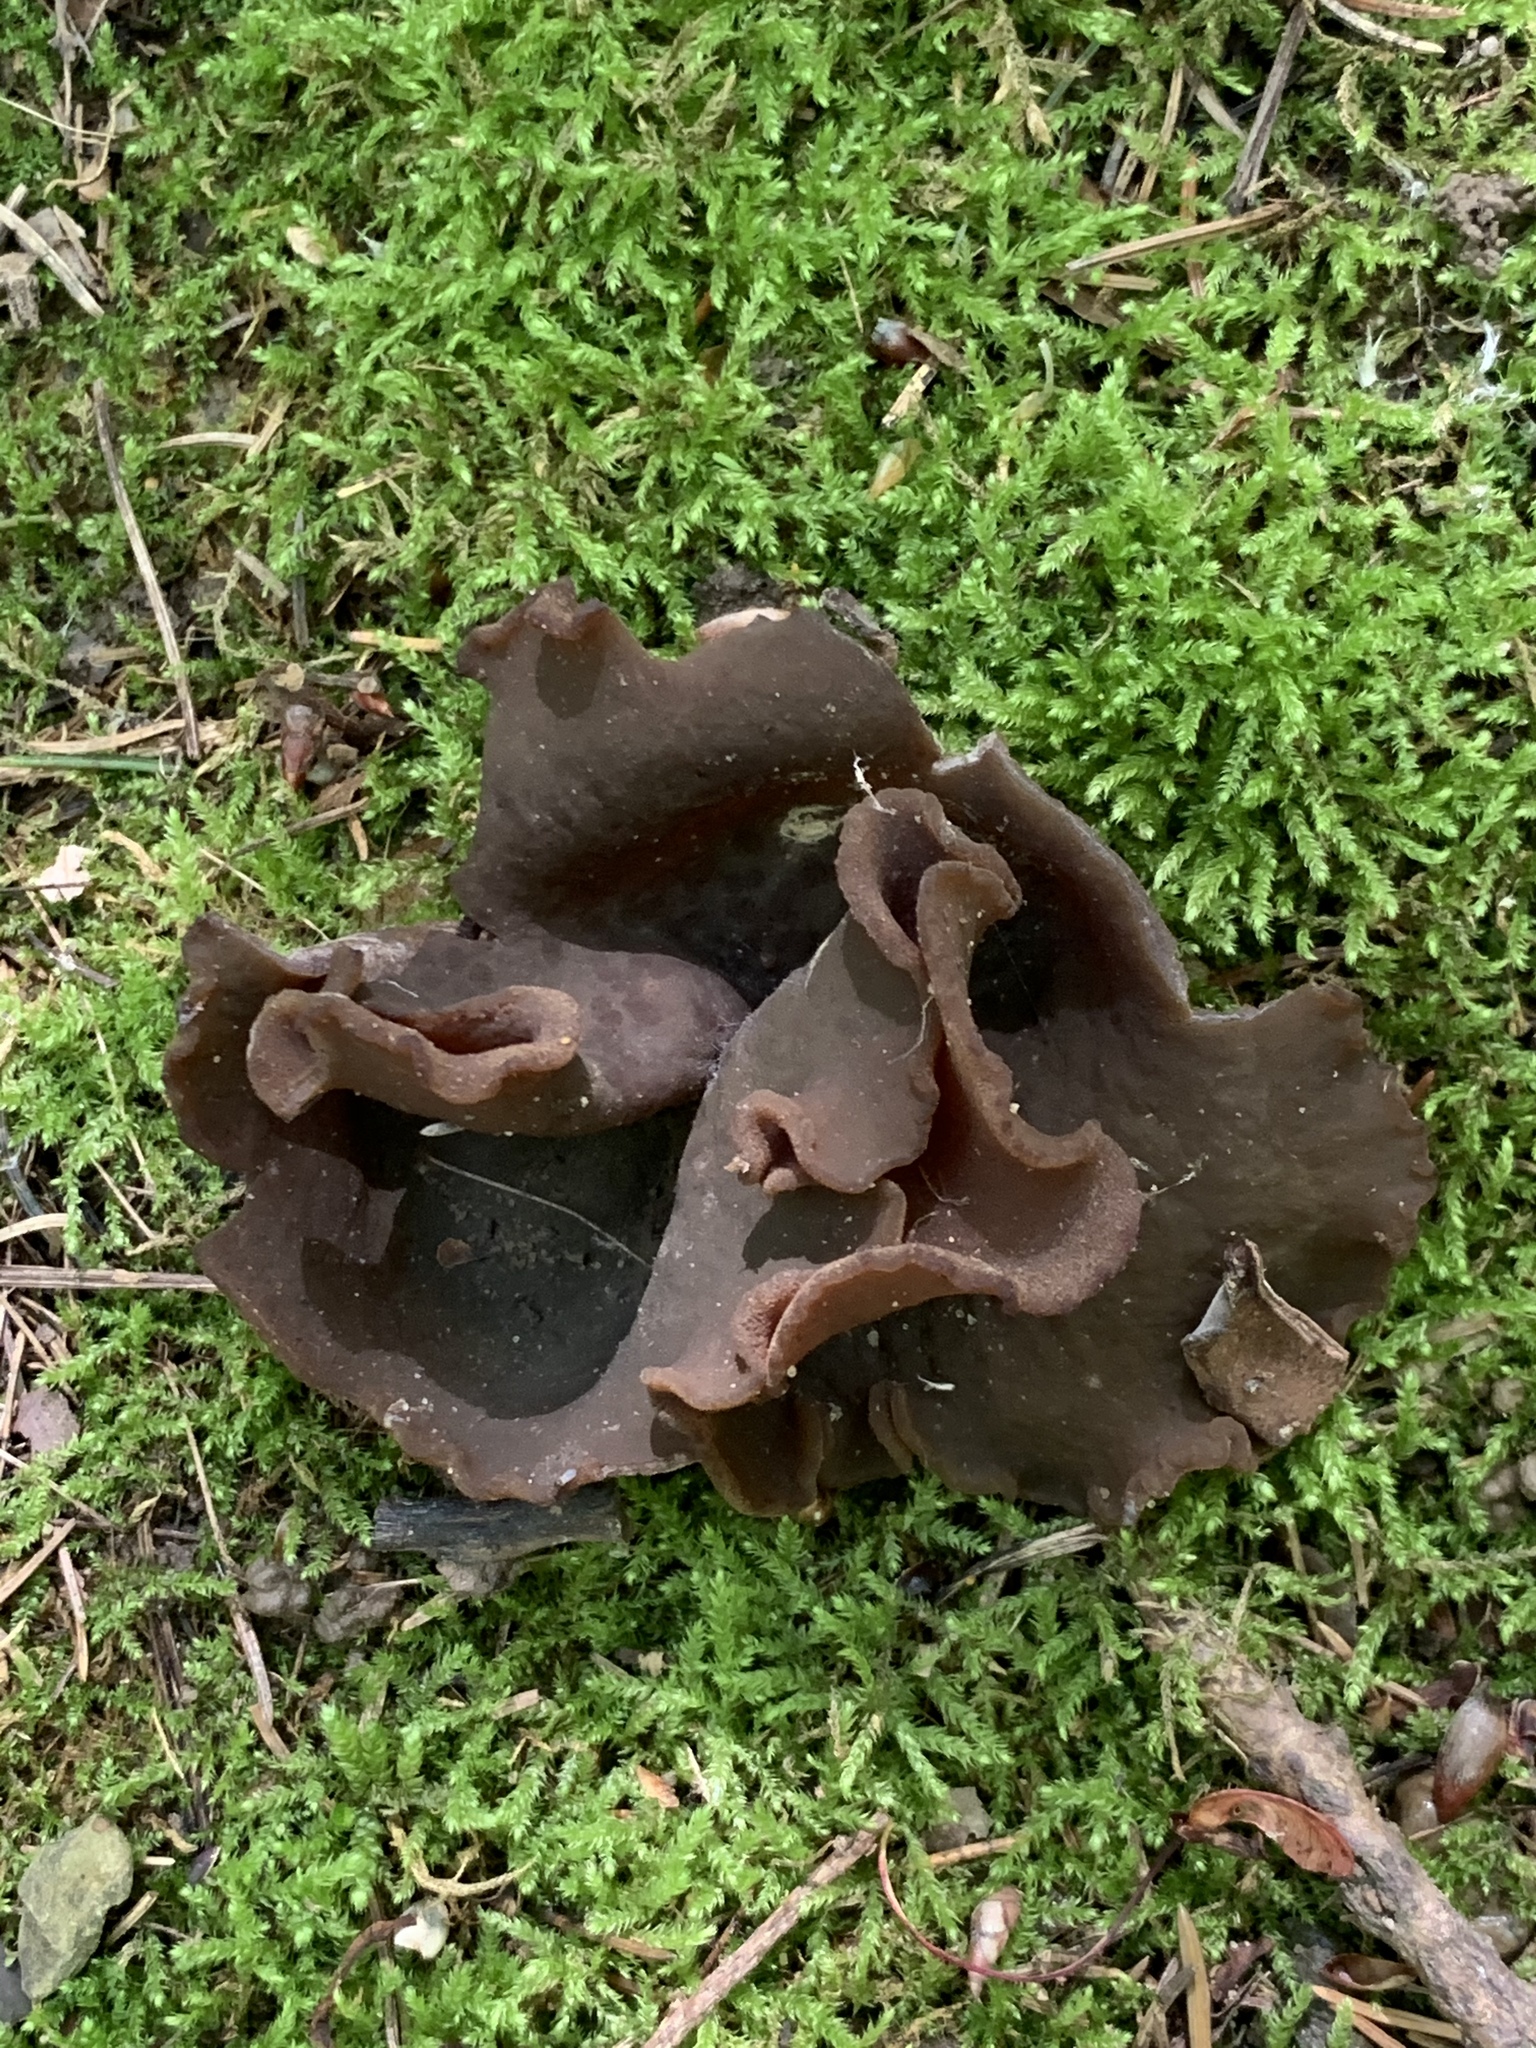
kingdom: Fungi
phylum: Ascomycota
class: Pezizomycetes
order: Pezizales
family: Pezizaceae
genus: Phylloscypha
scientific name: Phylloscypha phyllogena
